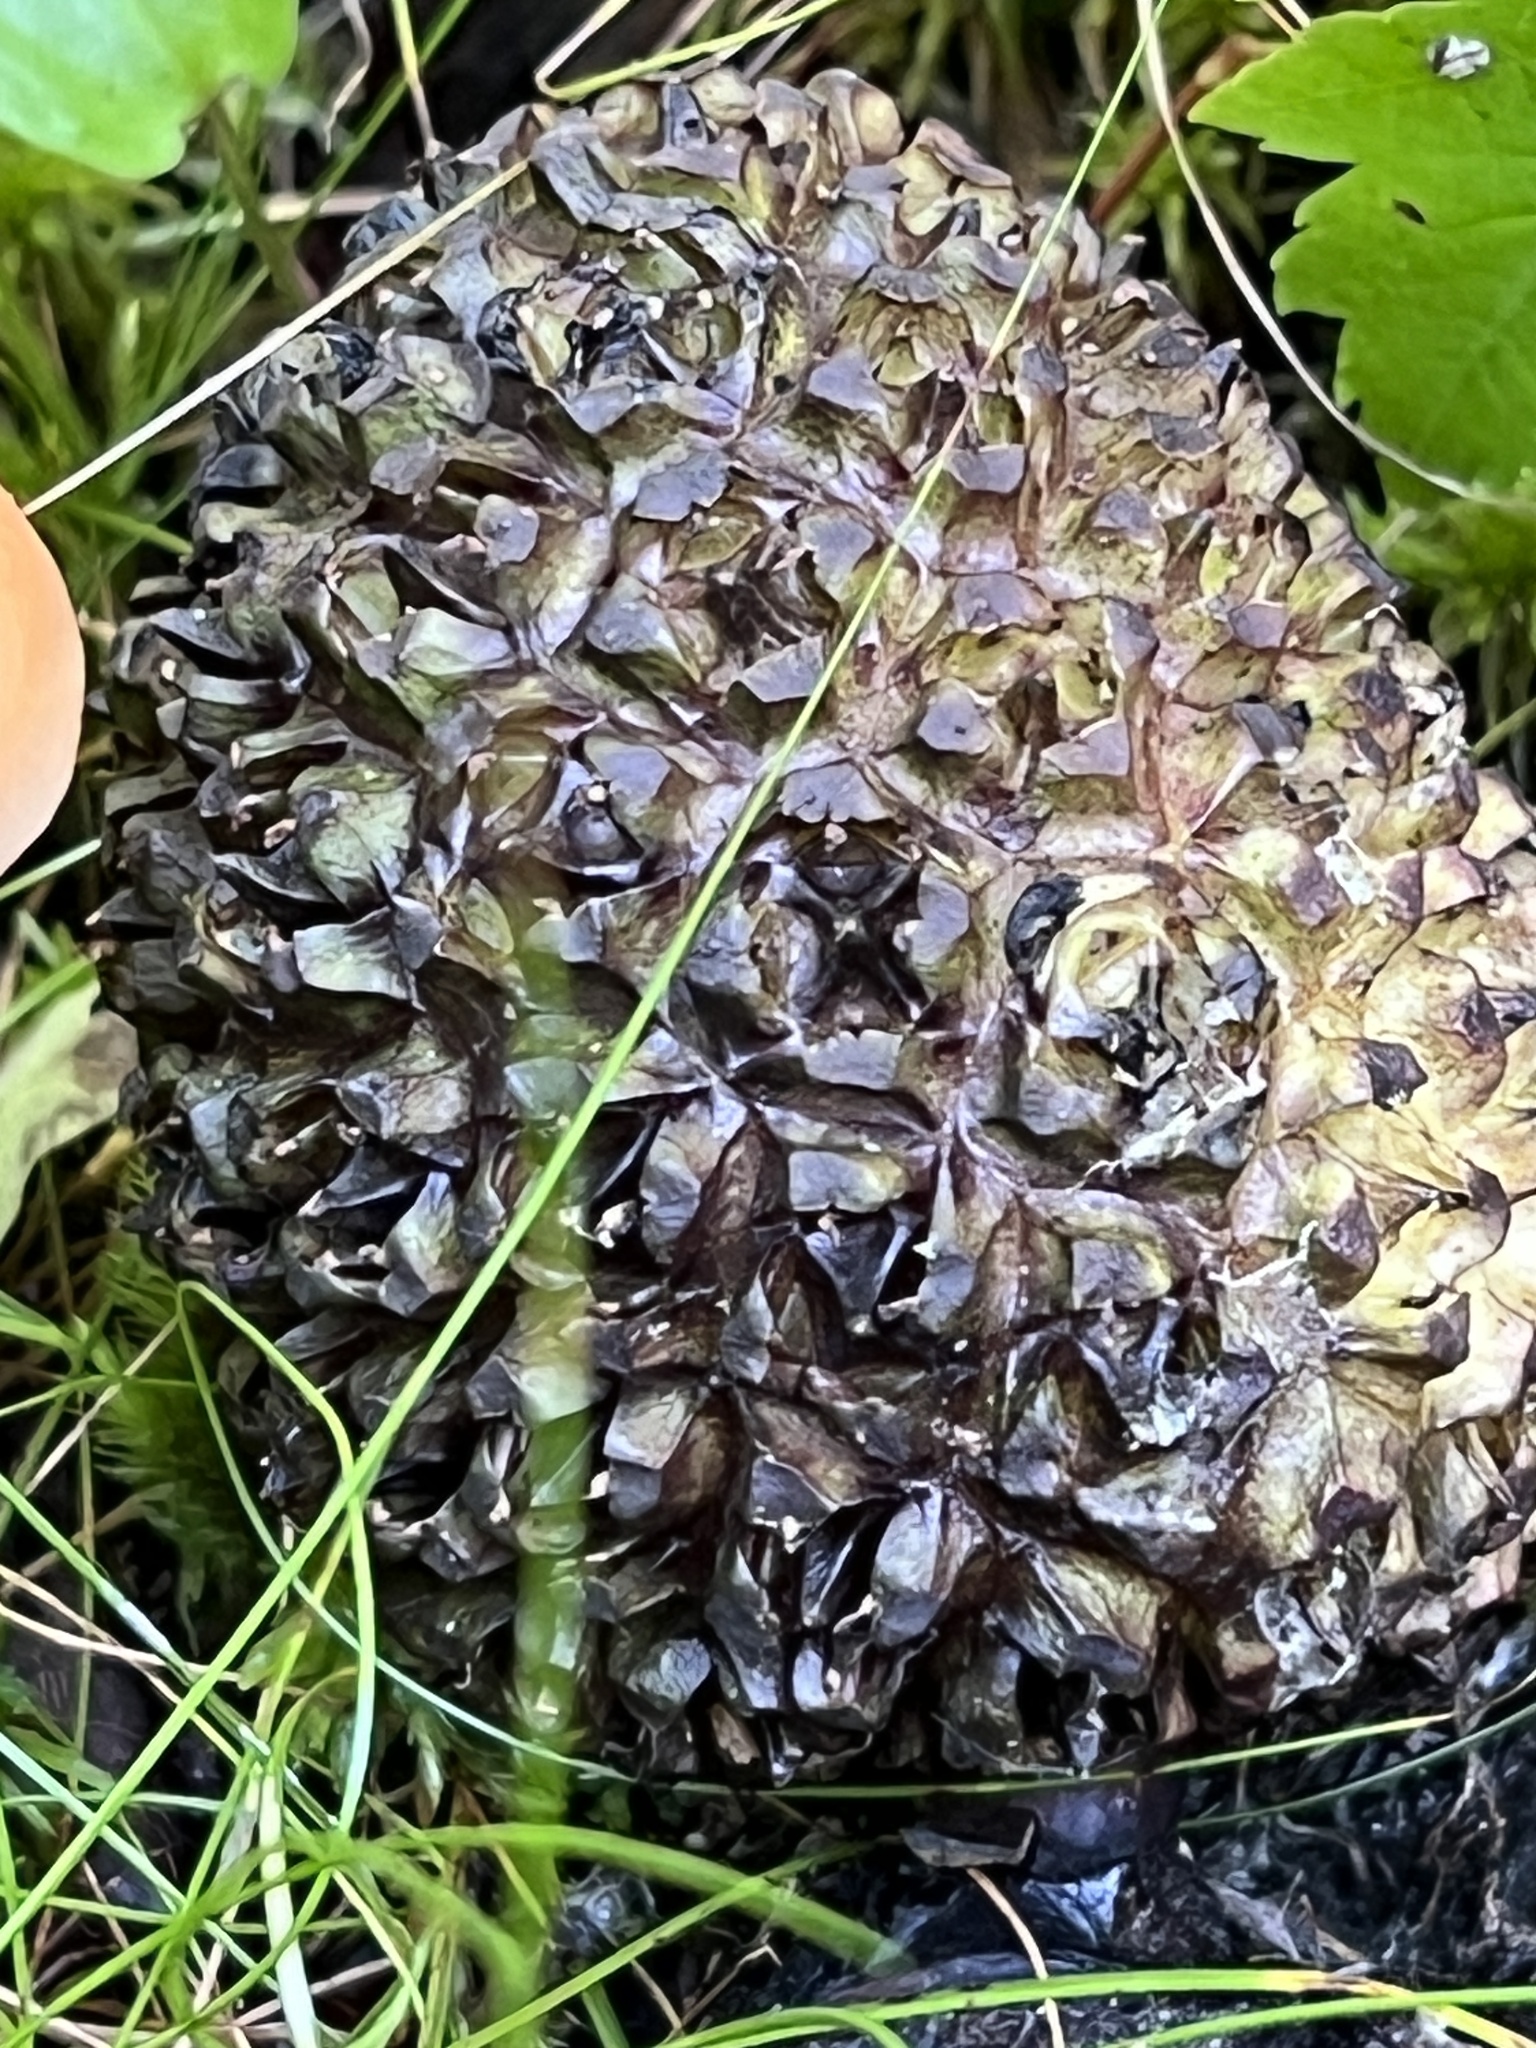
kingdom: Plantae
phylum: Tracheophyta
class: Liliopsida
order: Alismatales
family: Araceae
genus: Symplocarpus
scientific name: Symplocarpus foetidus
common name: Eastern skunk cabbage
